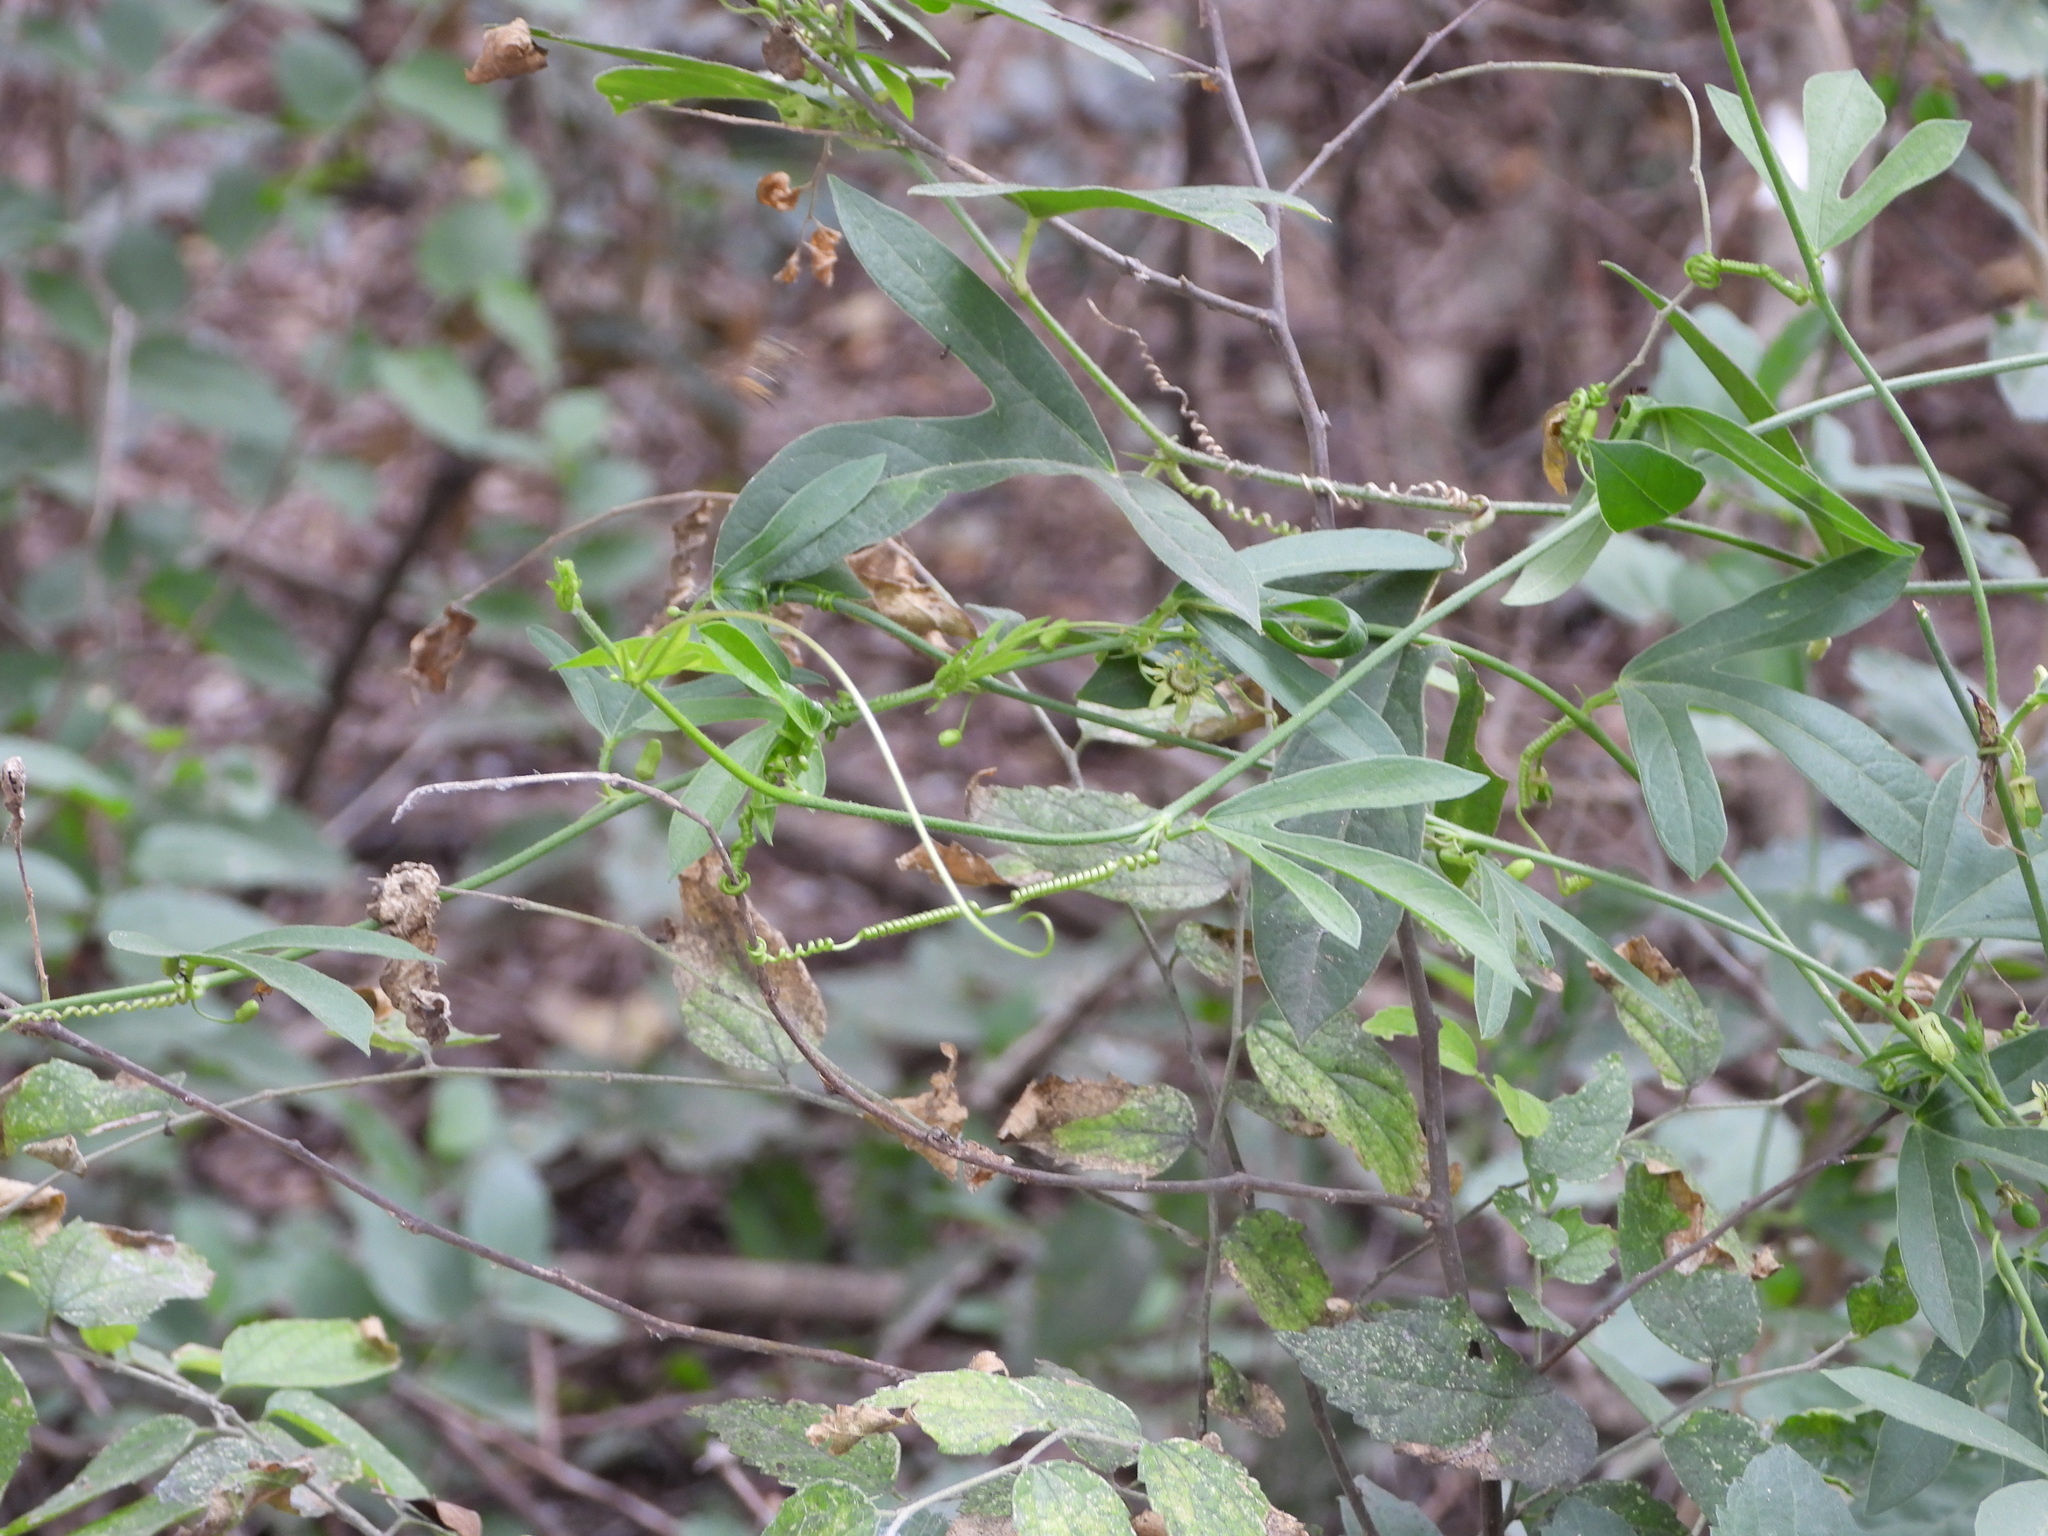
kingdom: Plantae
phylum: Tracheophyta
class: Magnoliopsida
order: Malpighiales
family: Passifloraceae
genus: Passiflora
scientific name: Passiflora pallida
